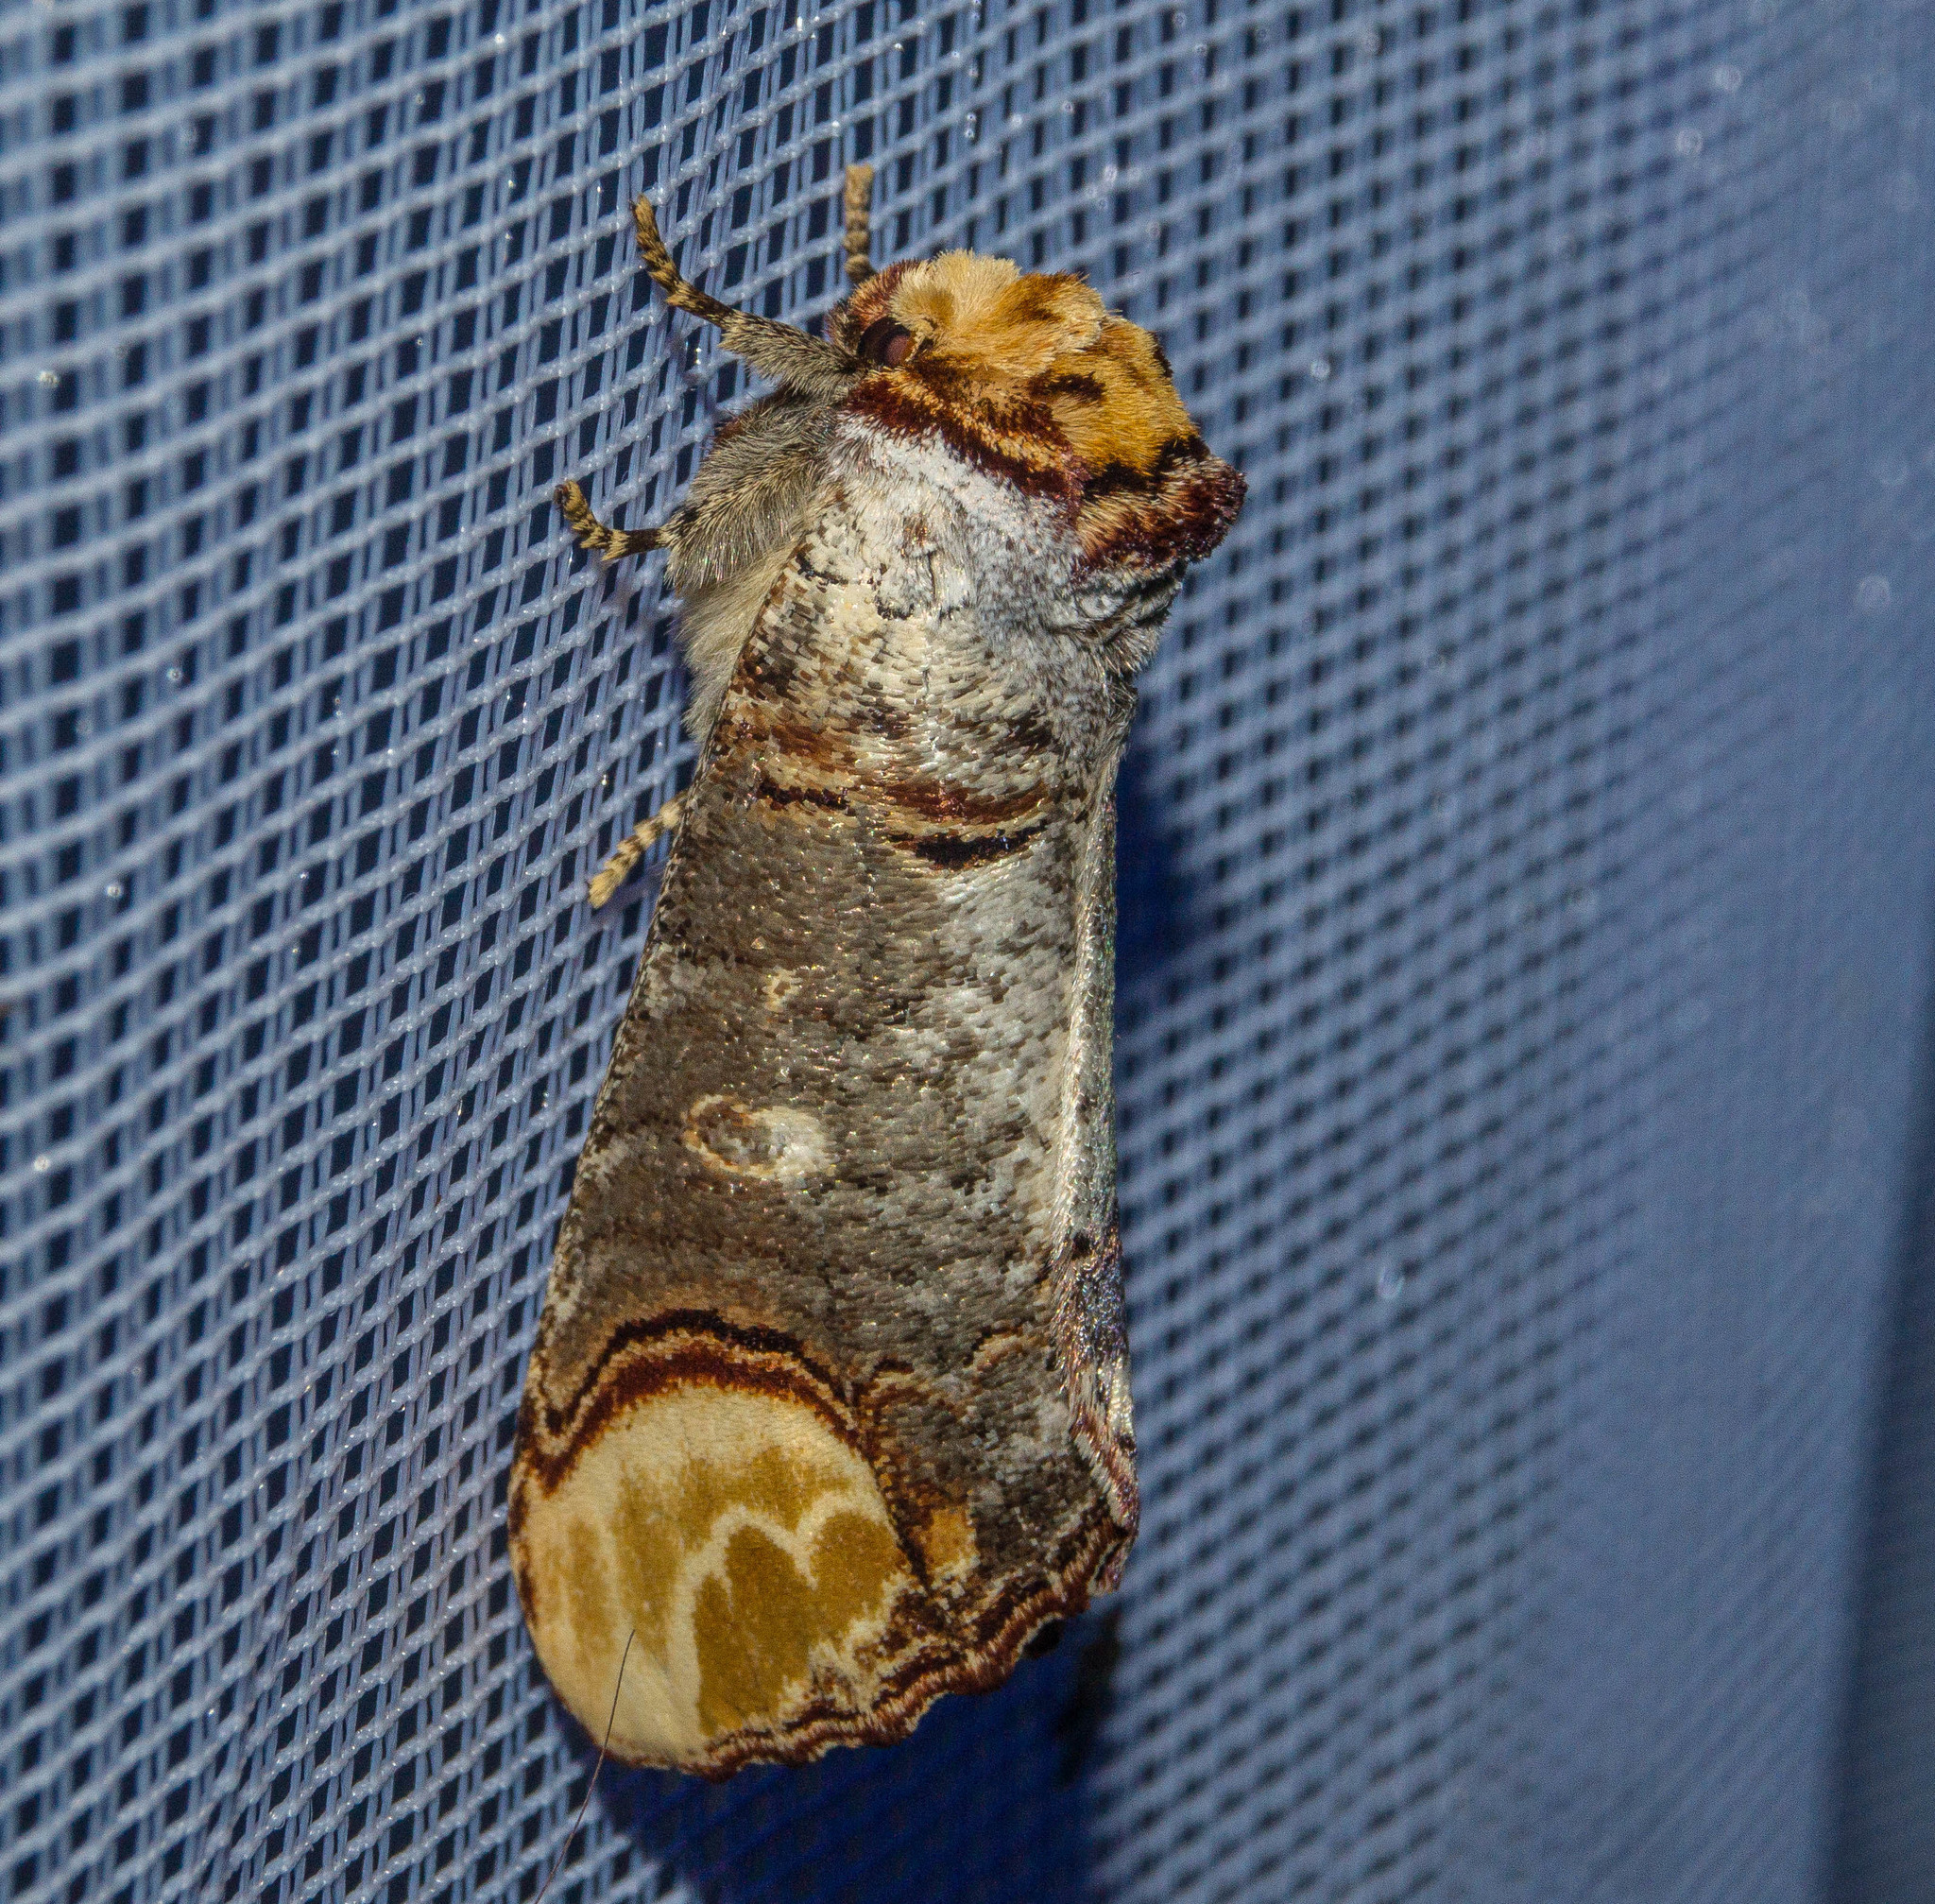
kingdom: Animalia
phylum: Arthropoda
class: Insecta
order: Lepidoptera
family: Notodontidae
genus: Phalera
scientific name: Phalera bucephala
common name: Buff-tip
